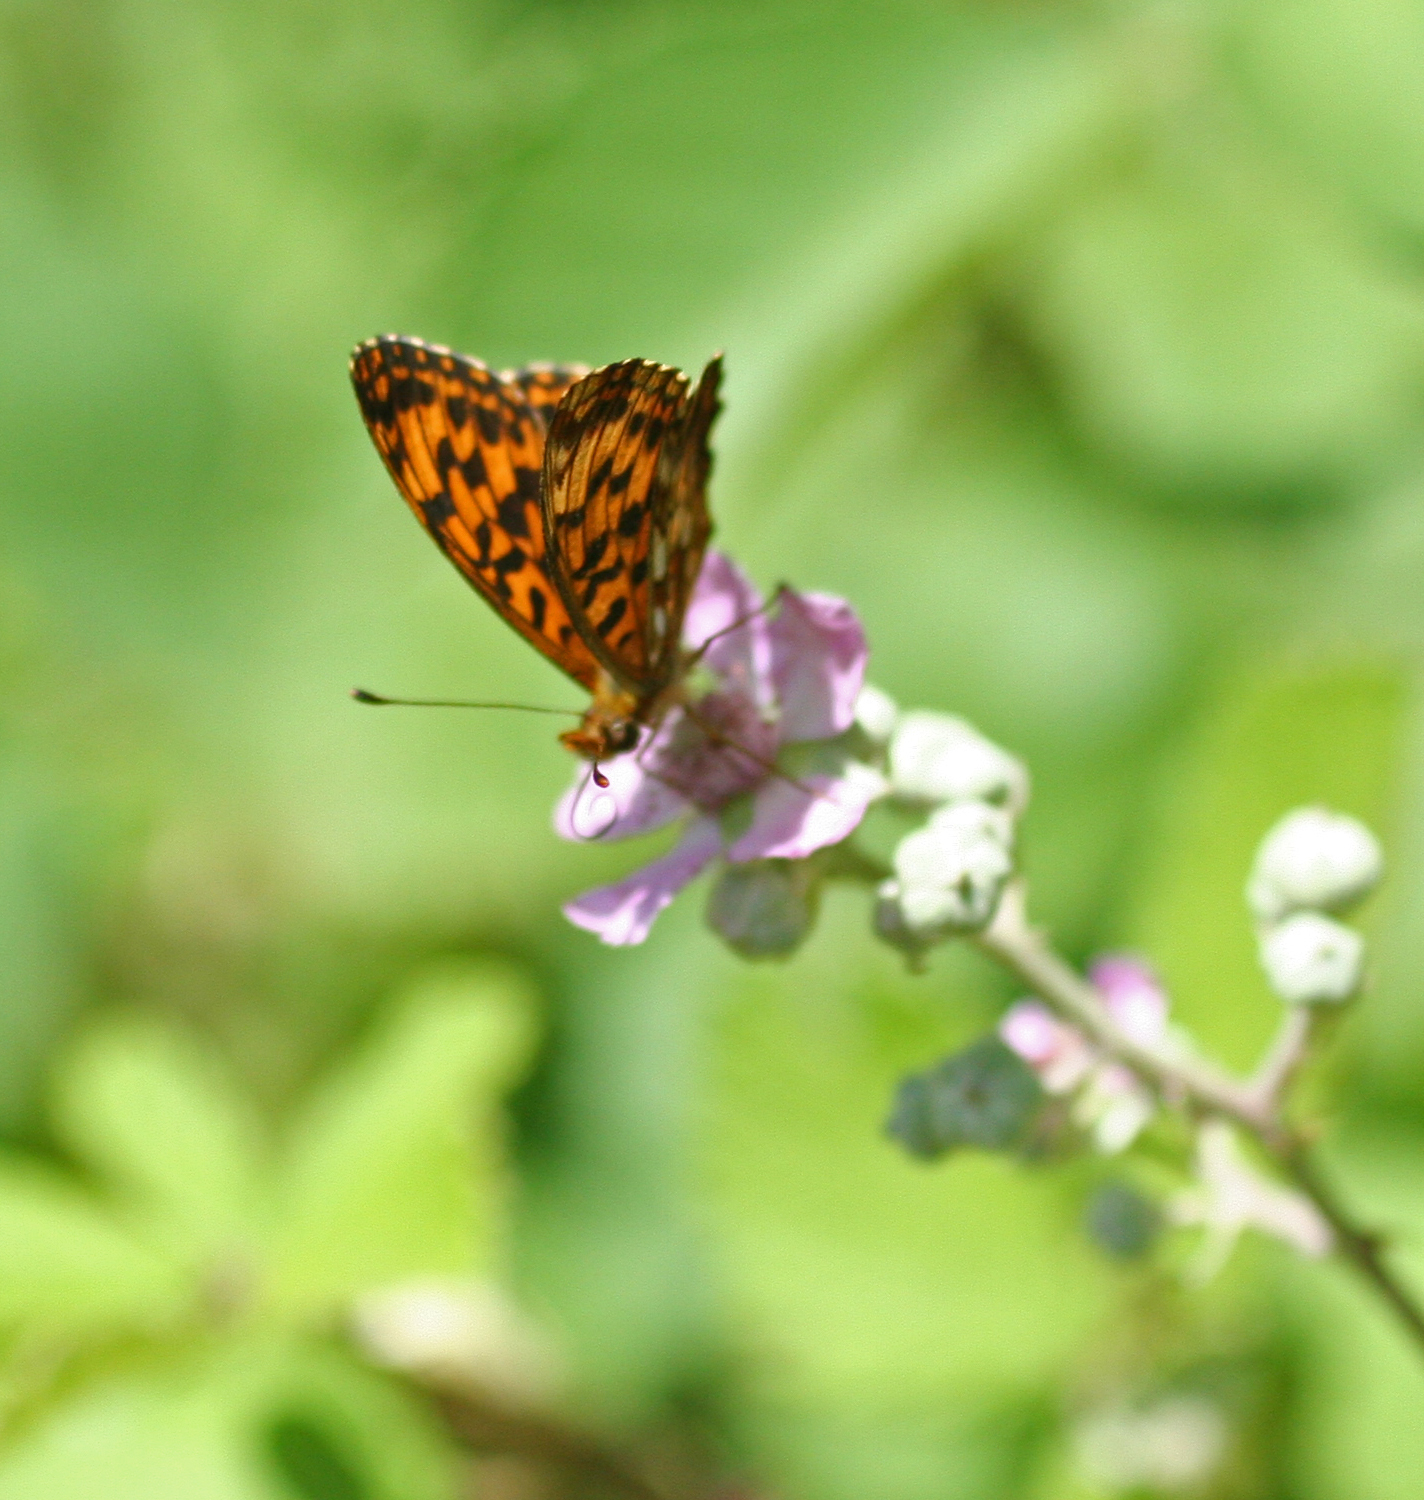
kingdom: Animalia
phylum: Arthropoda
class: Insecta
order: Lepidoptera
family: Nymphalidae
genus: Boloria
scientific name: Boloria dia
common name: Weaver's fritillary
